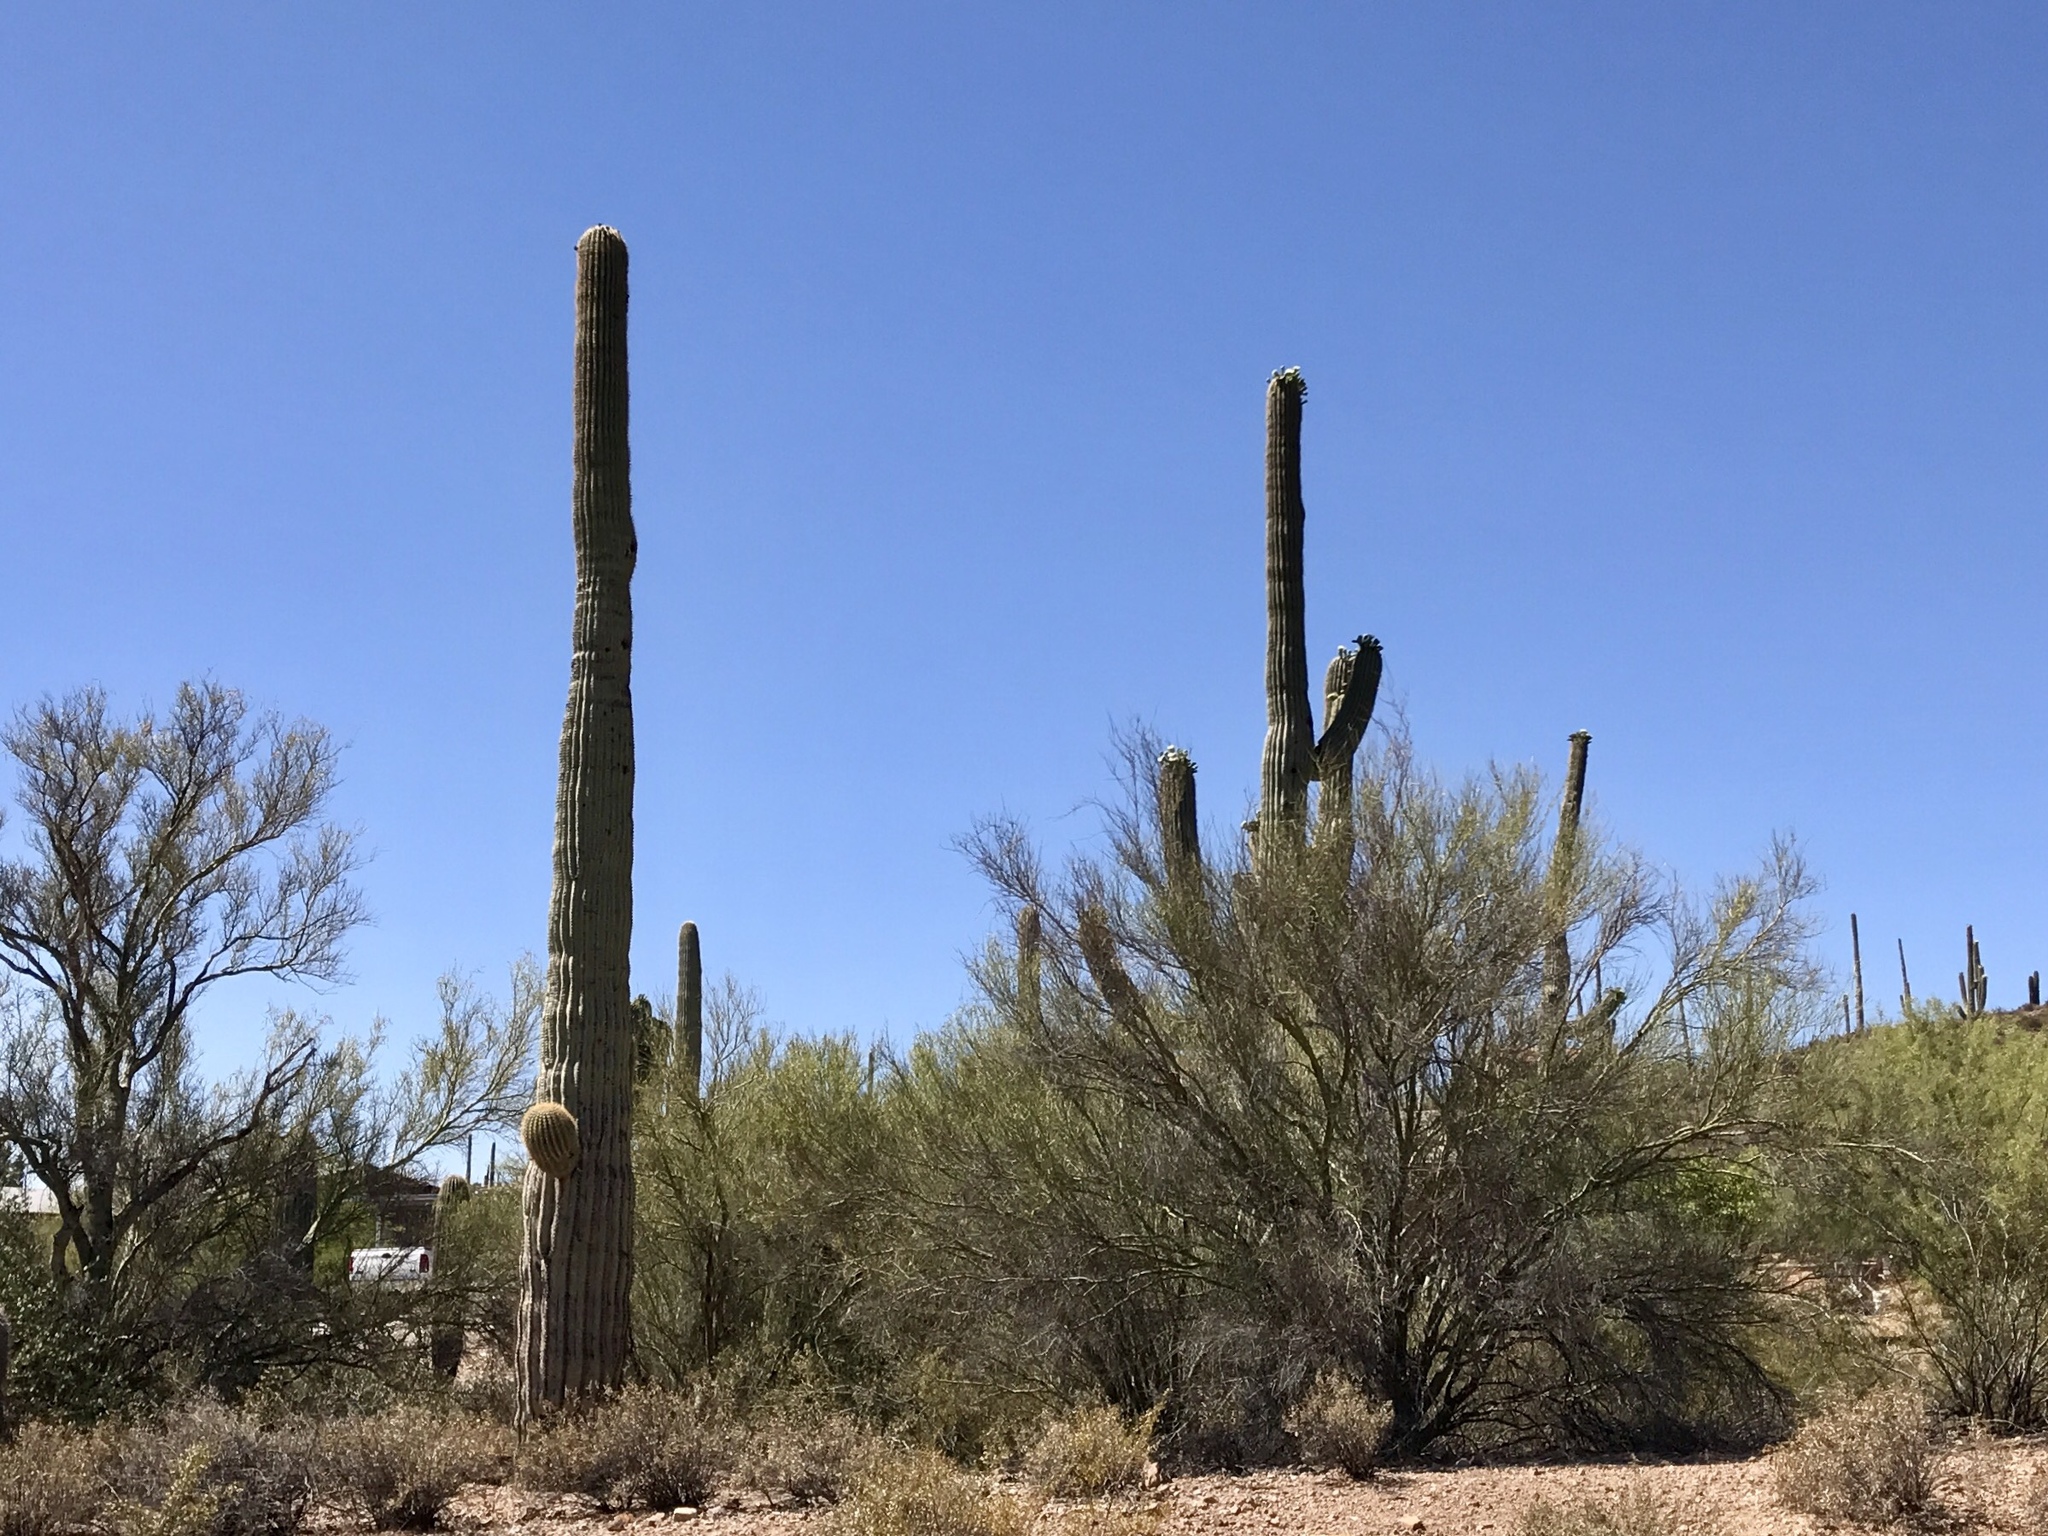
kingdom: Plantae
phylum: Tracheophyta
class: Magnoliopsida
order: Caryophyllales
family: Cactaceae
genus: Carnegiea
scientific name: Carnegiea gigantea
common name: Saguaro
